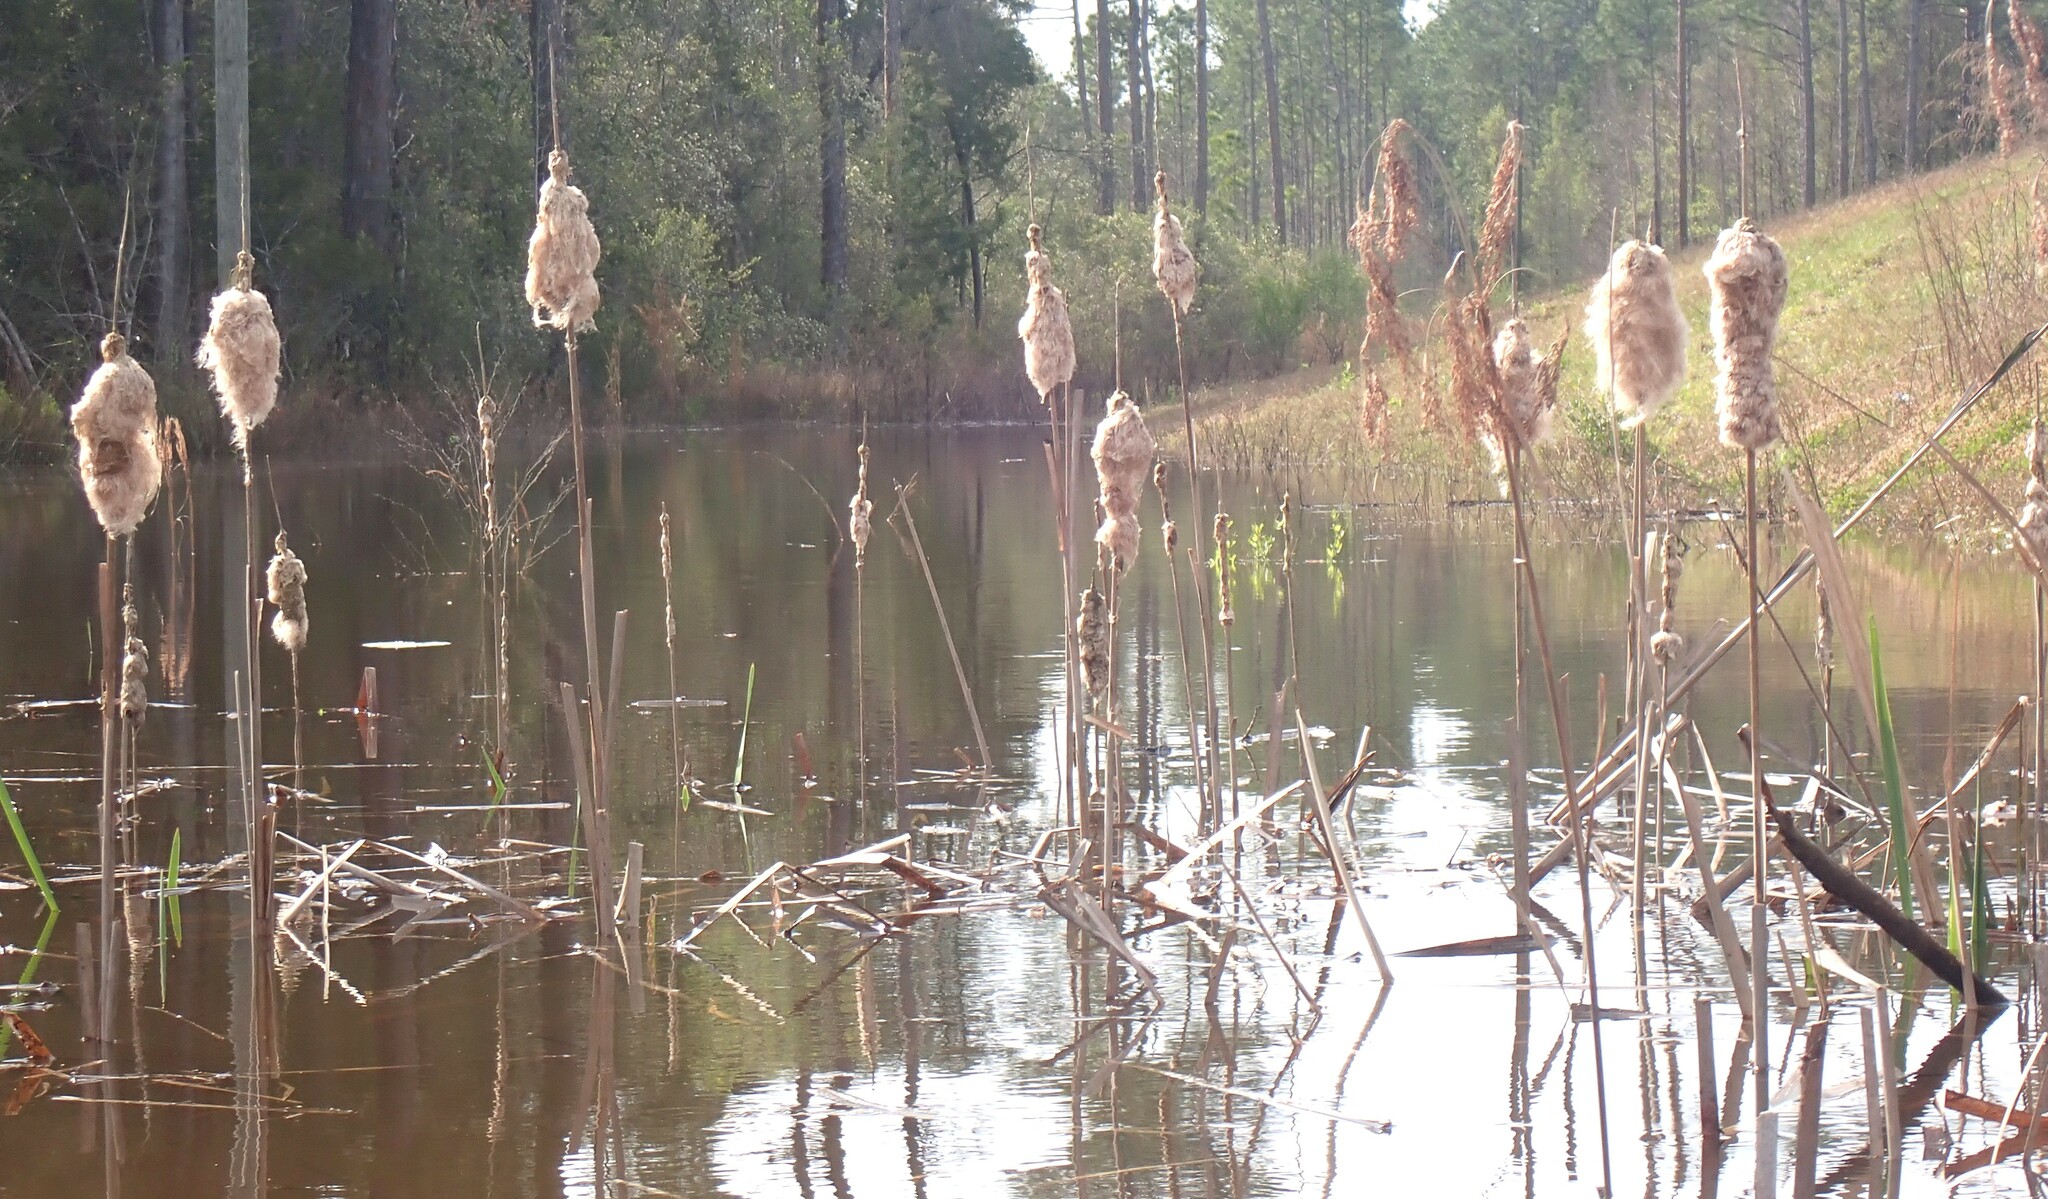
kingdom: Plantae
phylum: Tracheophyta
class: Liliopsida
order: Poales
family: Typhaceae
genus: Typha
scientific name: Typha latifolia
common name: Broadleaf cattail
